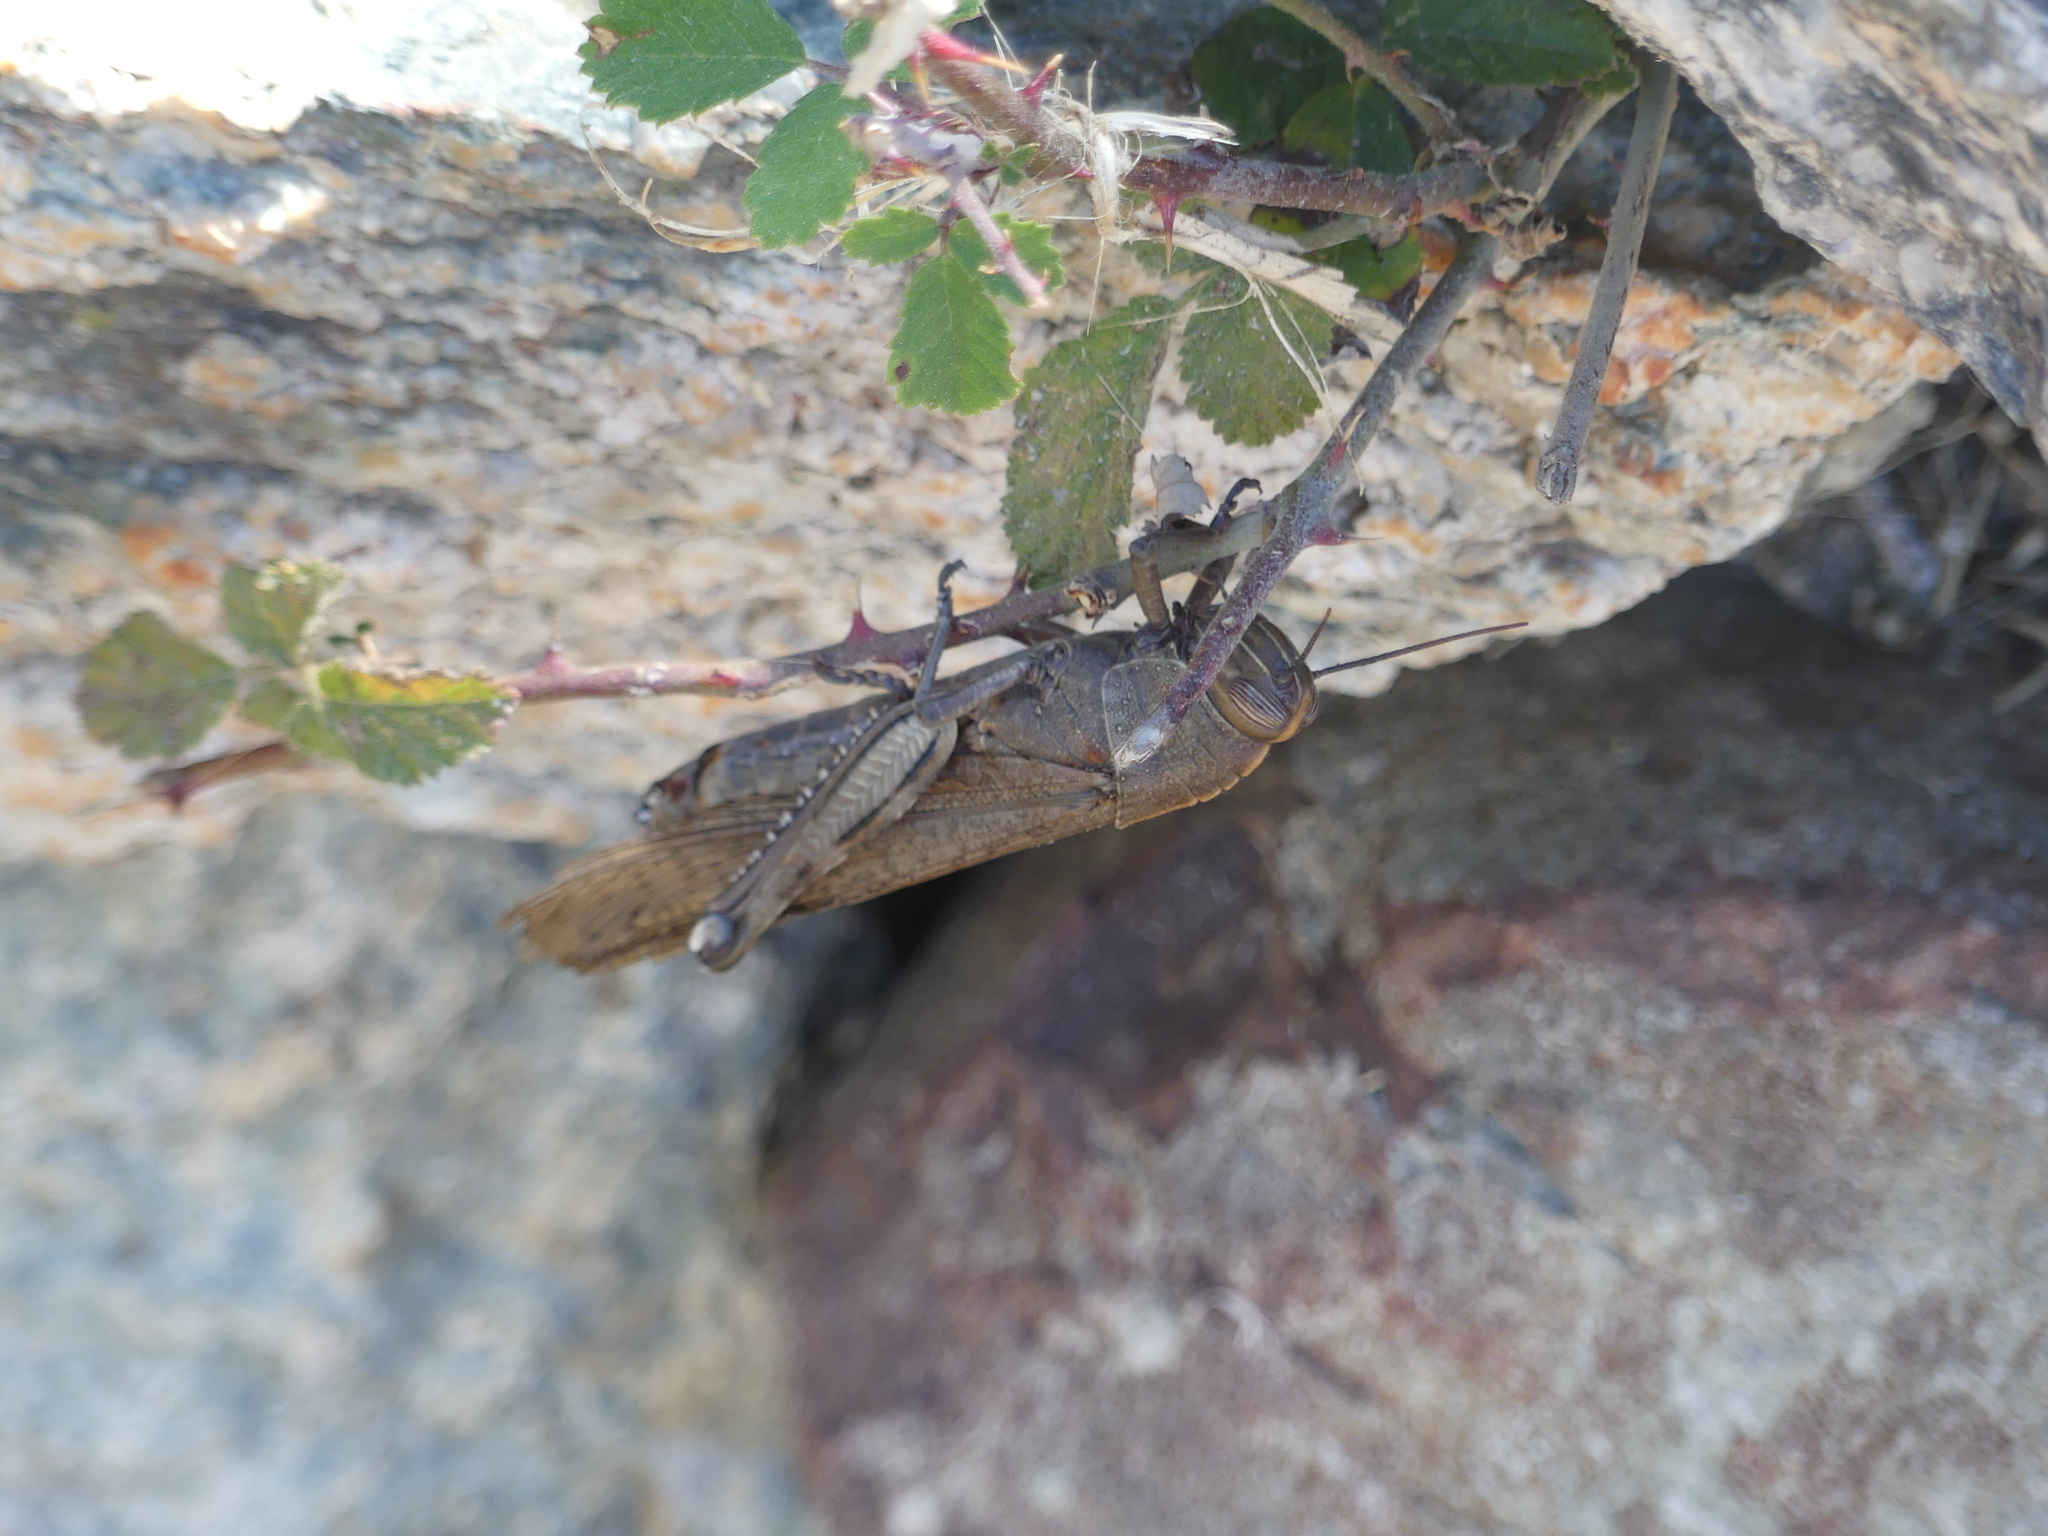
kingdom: Animalia
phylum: Arthropoda
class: Insecta
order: Orthoptera
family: Acrididae
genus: Anacridium
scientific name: Anacridium aegyptium
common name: Egyptian grasshopper
